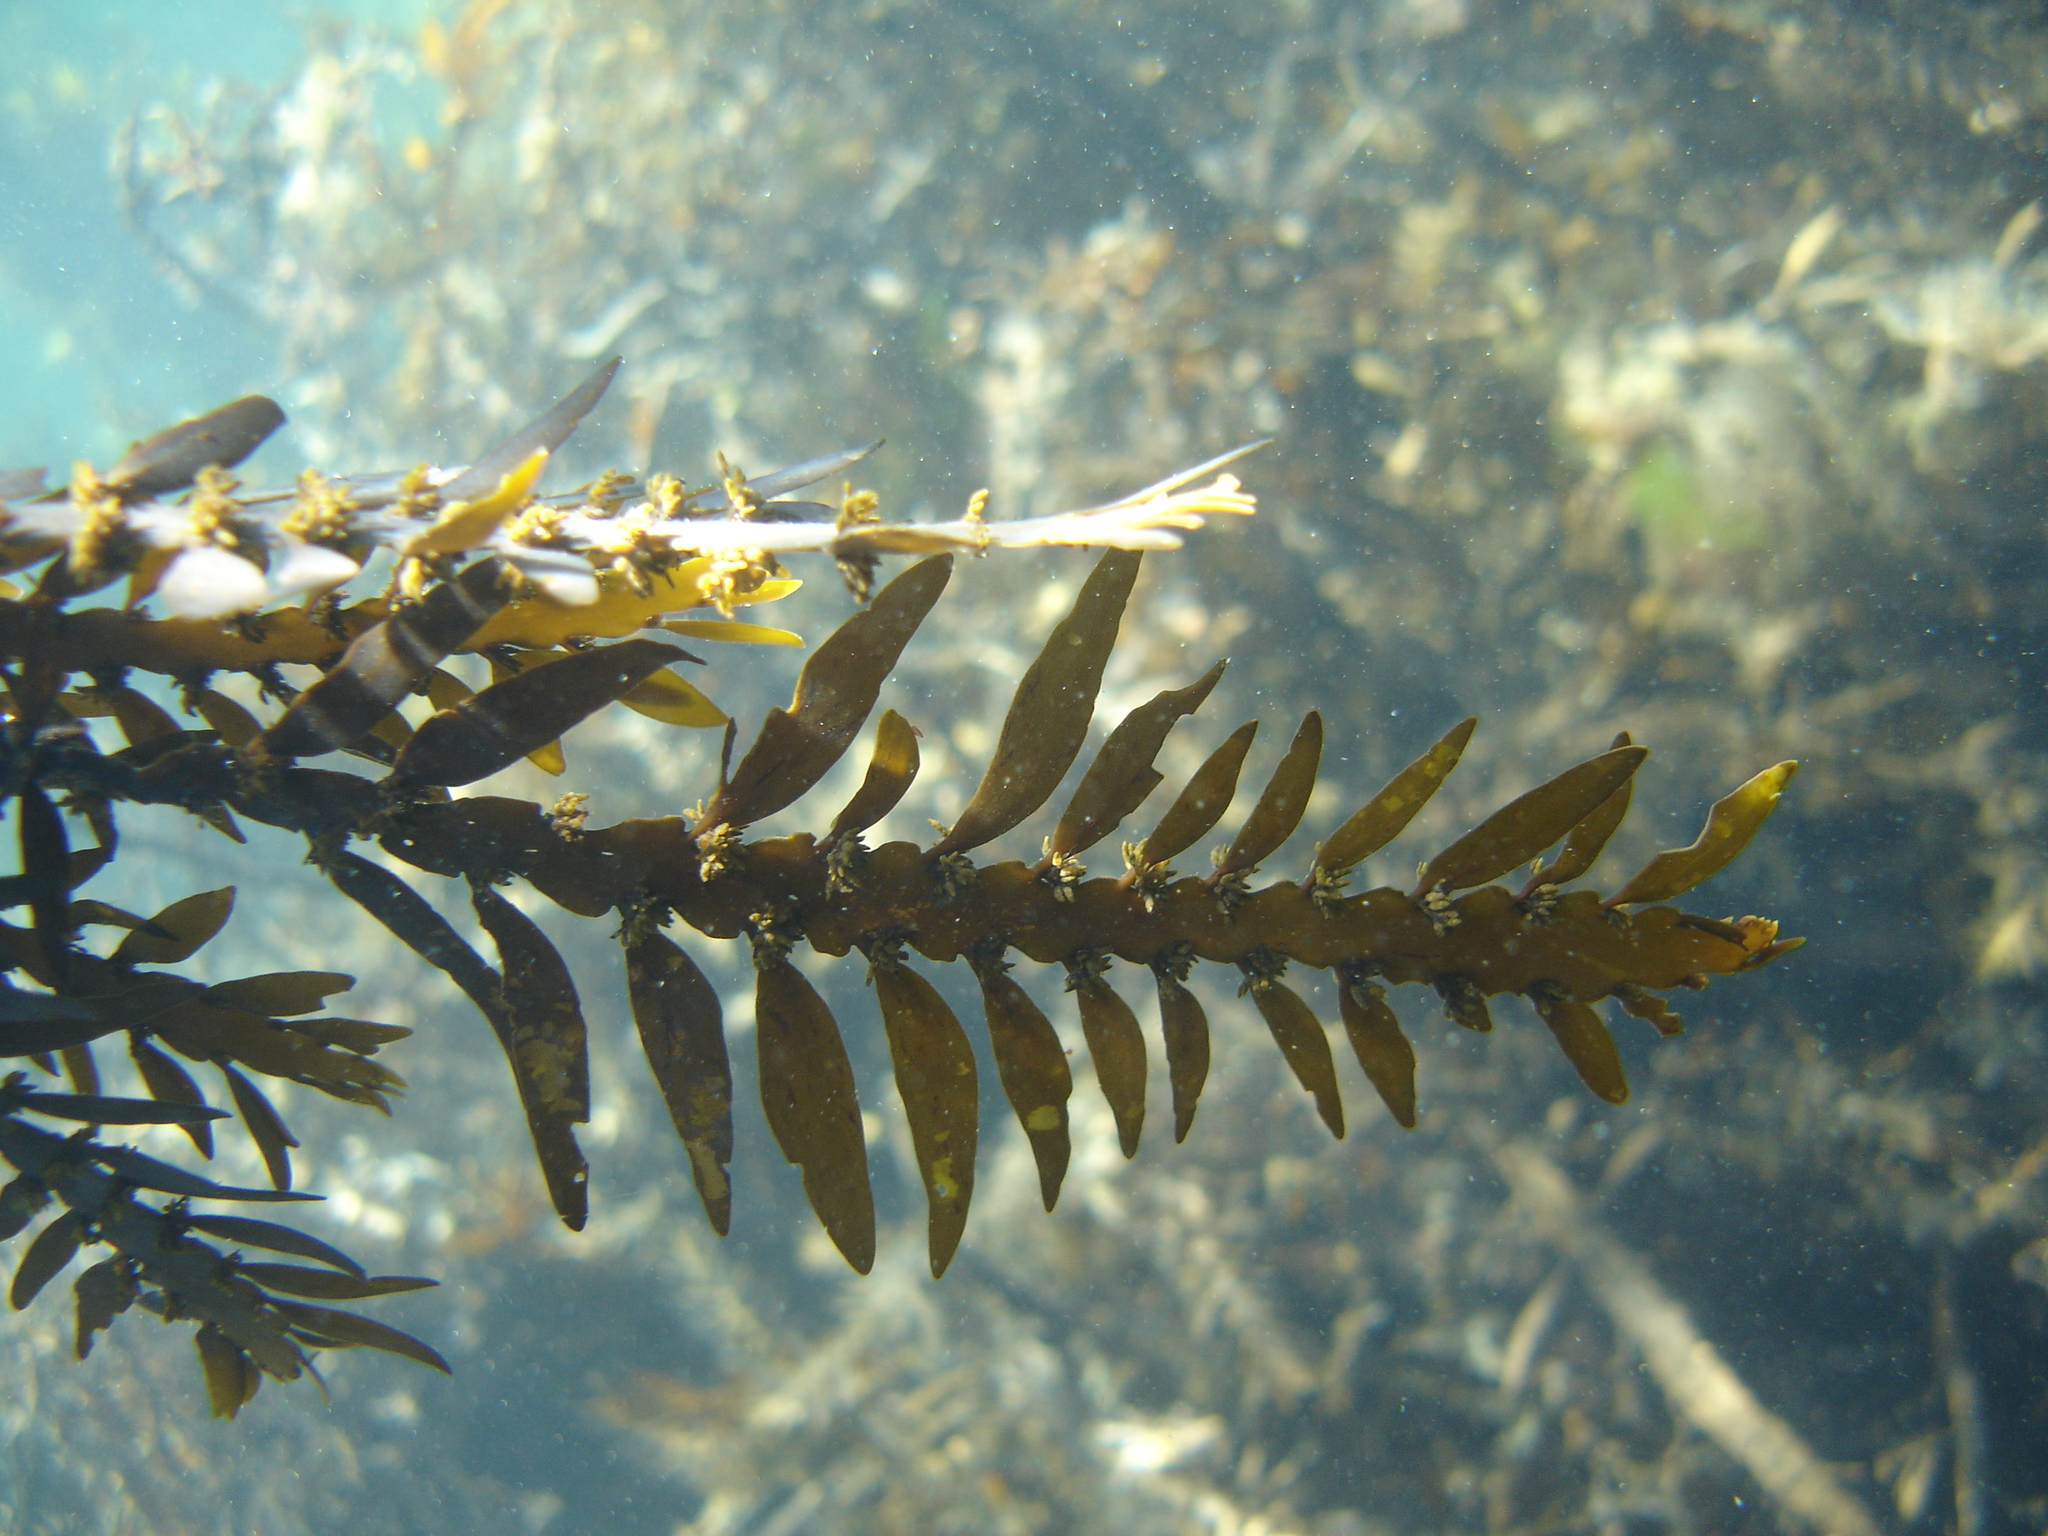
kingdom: Chromista
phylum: Ochrophyta
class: Phaeophyceae
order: Fucales
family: Sargassaceae
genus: Carpophyllum
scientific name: Carpophyllum maschalocarpum
